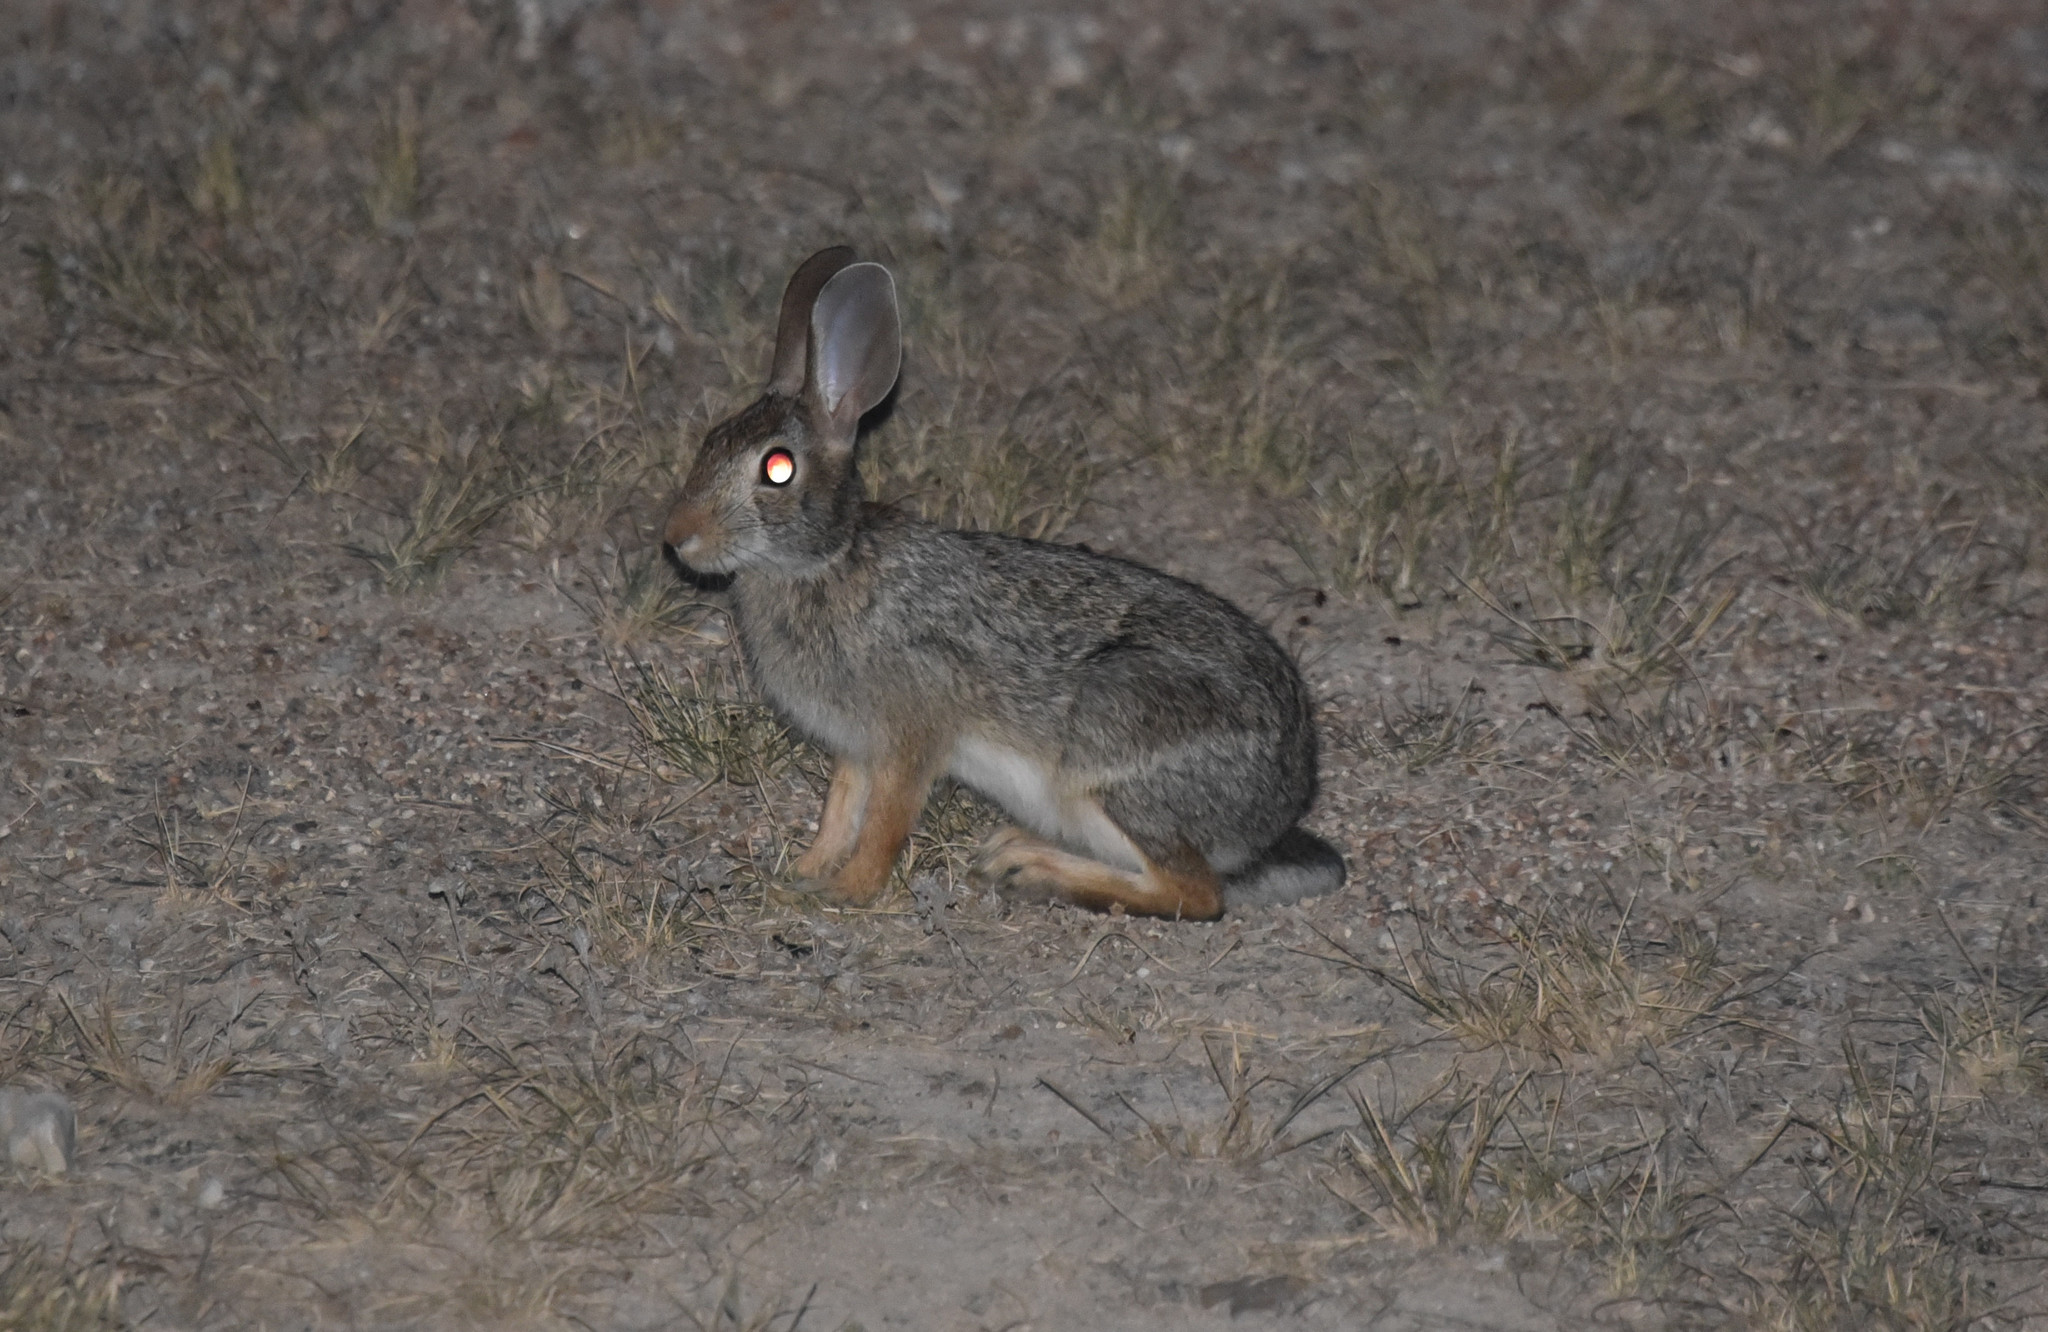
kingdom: Animalia
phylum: Chordata
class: Mammalia
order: Lagomorpha
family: Leporidae
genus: Sylvilagus
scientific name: Sylvilagus floridanus
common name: Eastern cottontail
